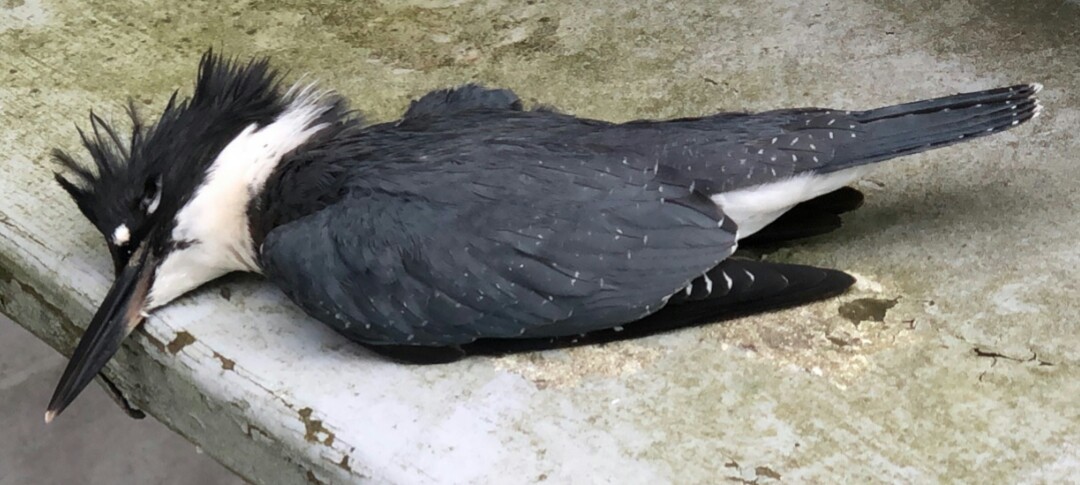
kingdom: Animalia
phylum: Chordata
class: Aves
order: Coraciiformes
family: Alcedinidae
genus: Megaceryle
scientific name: Megaceryle alcyon
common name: Belted kingfisher
